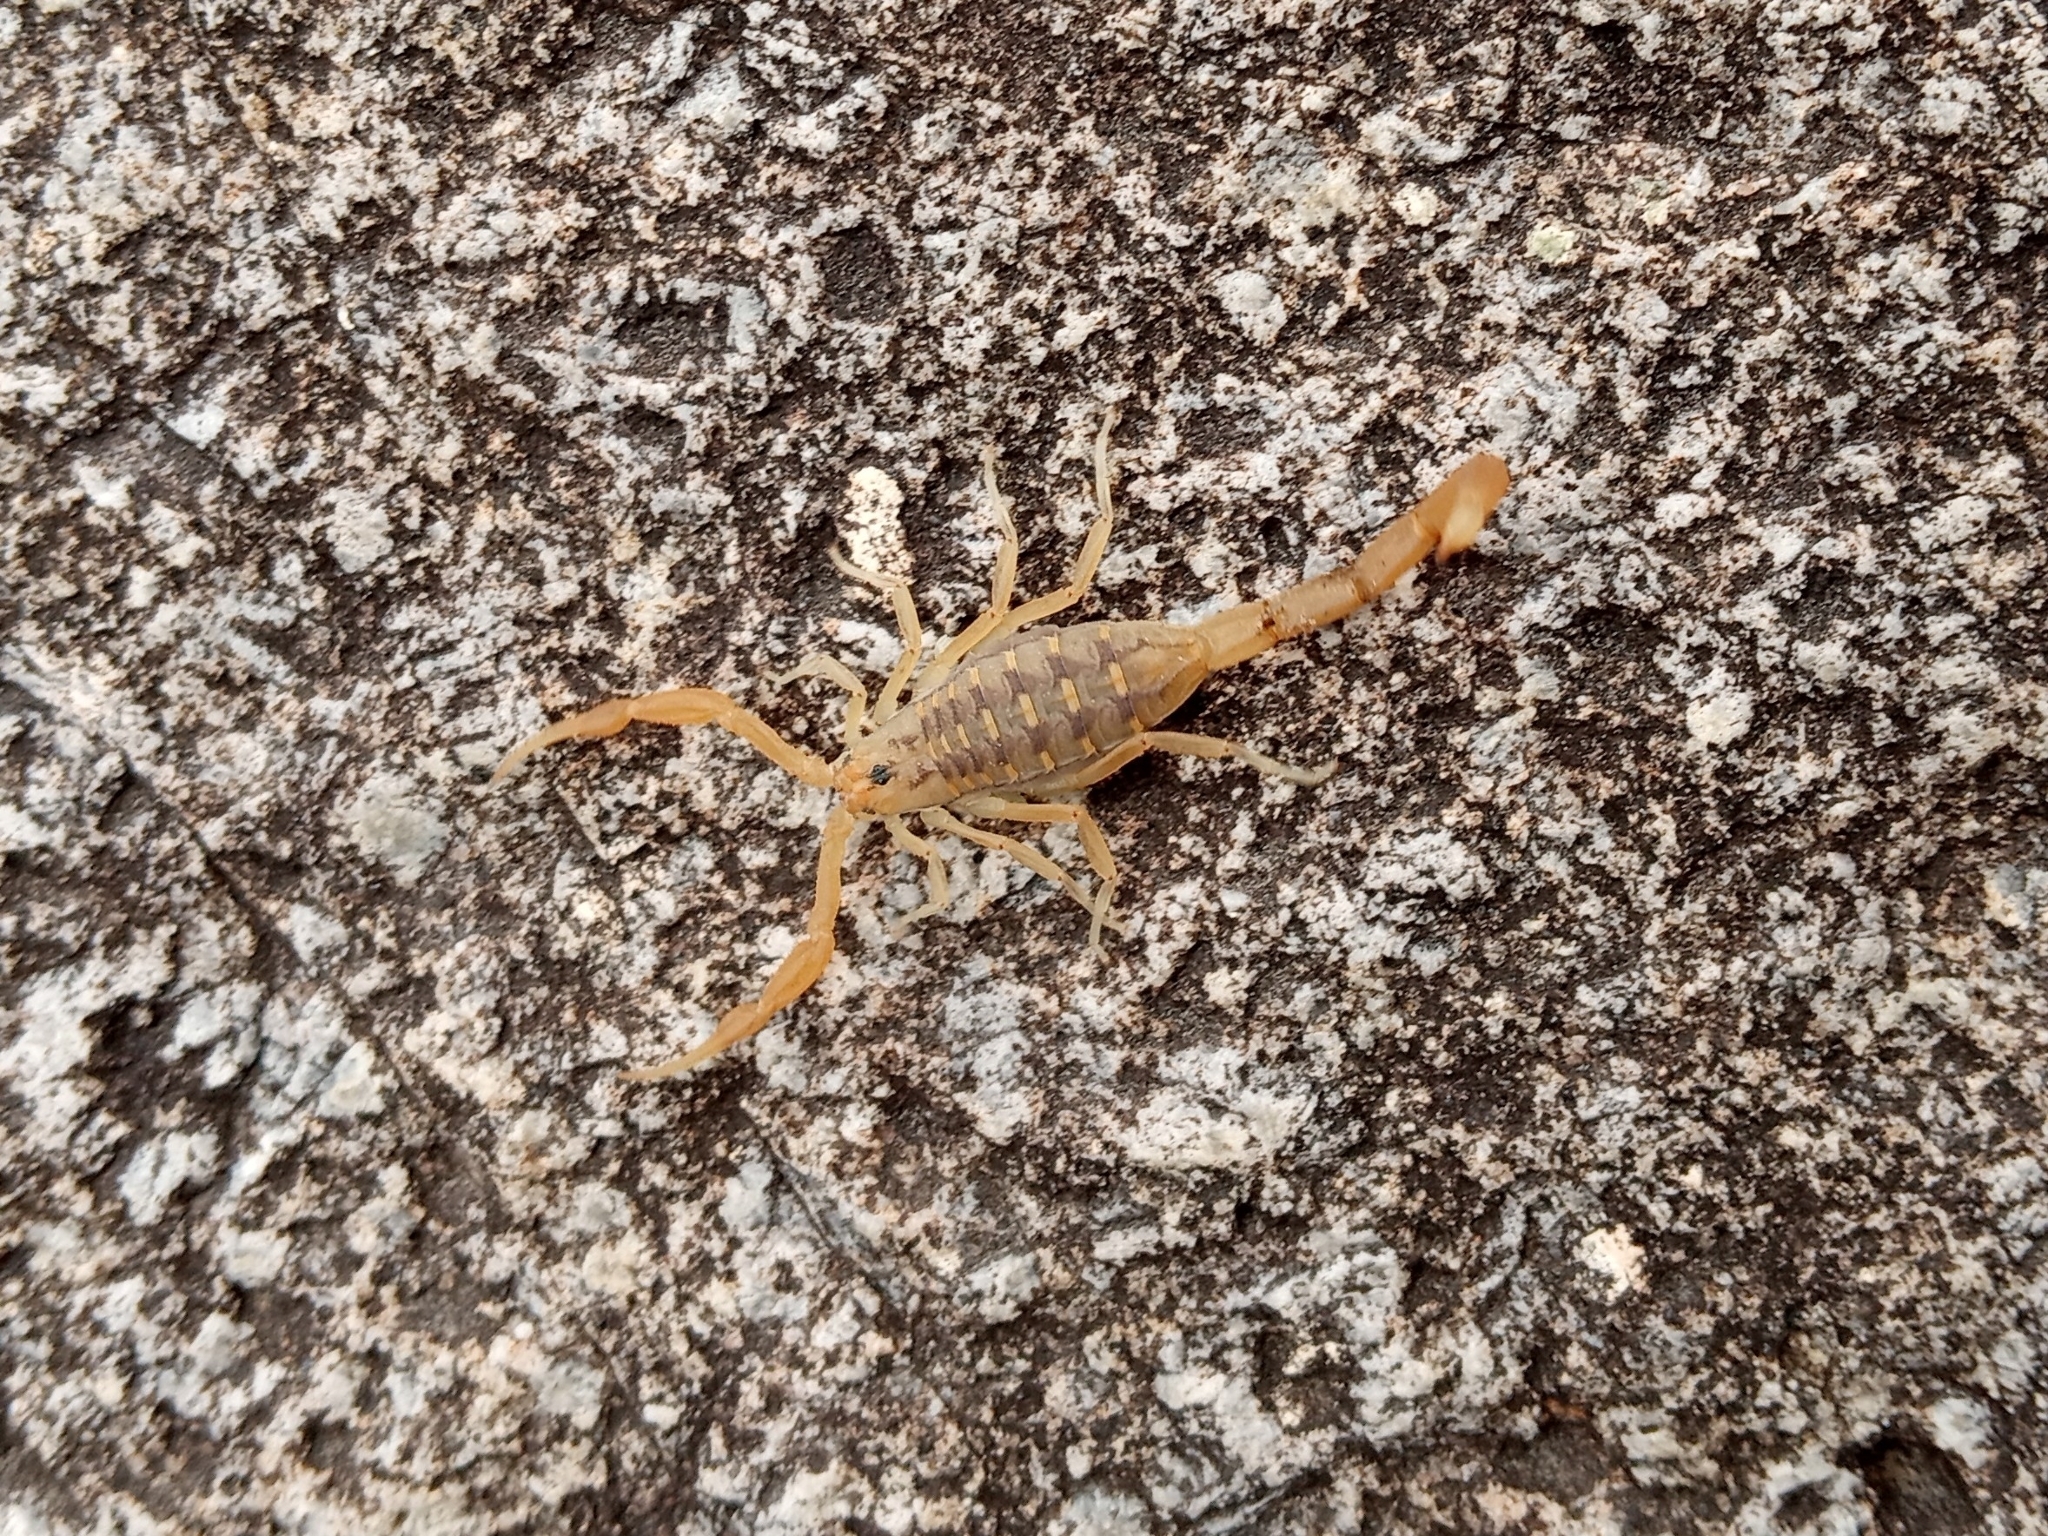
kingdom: Animalia
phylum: Arthropoda
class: Arachnida
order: Scorpiones
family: Buthidae
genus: Centruroides
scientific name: Centruroides sculpturatus
